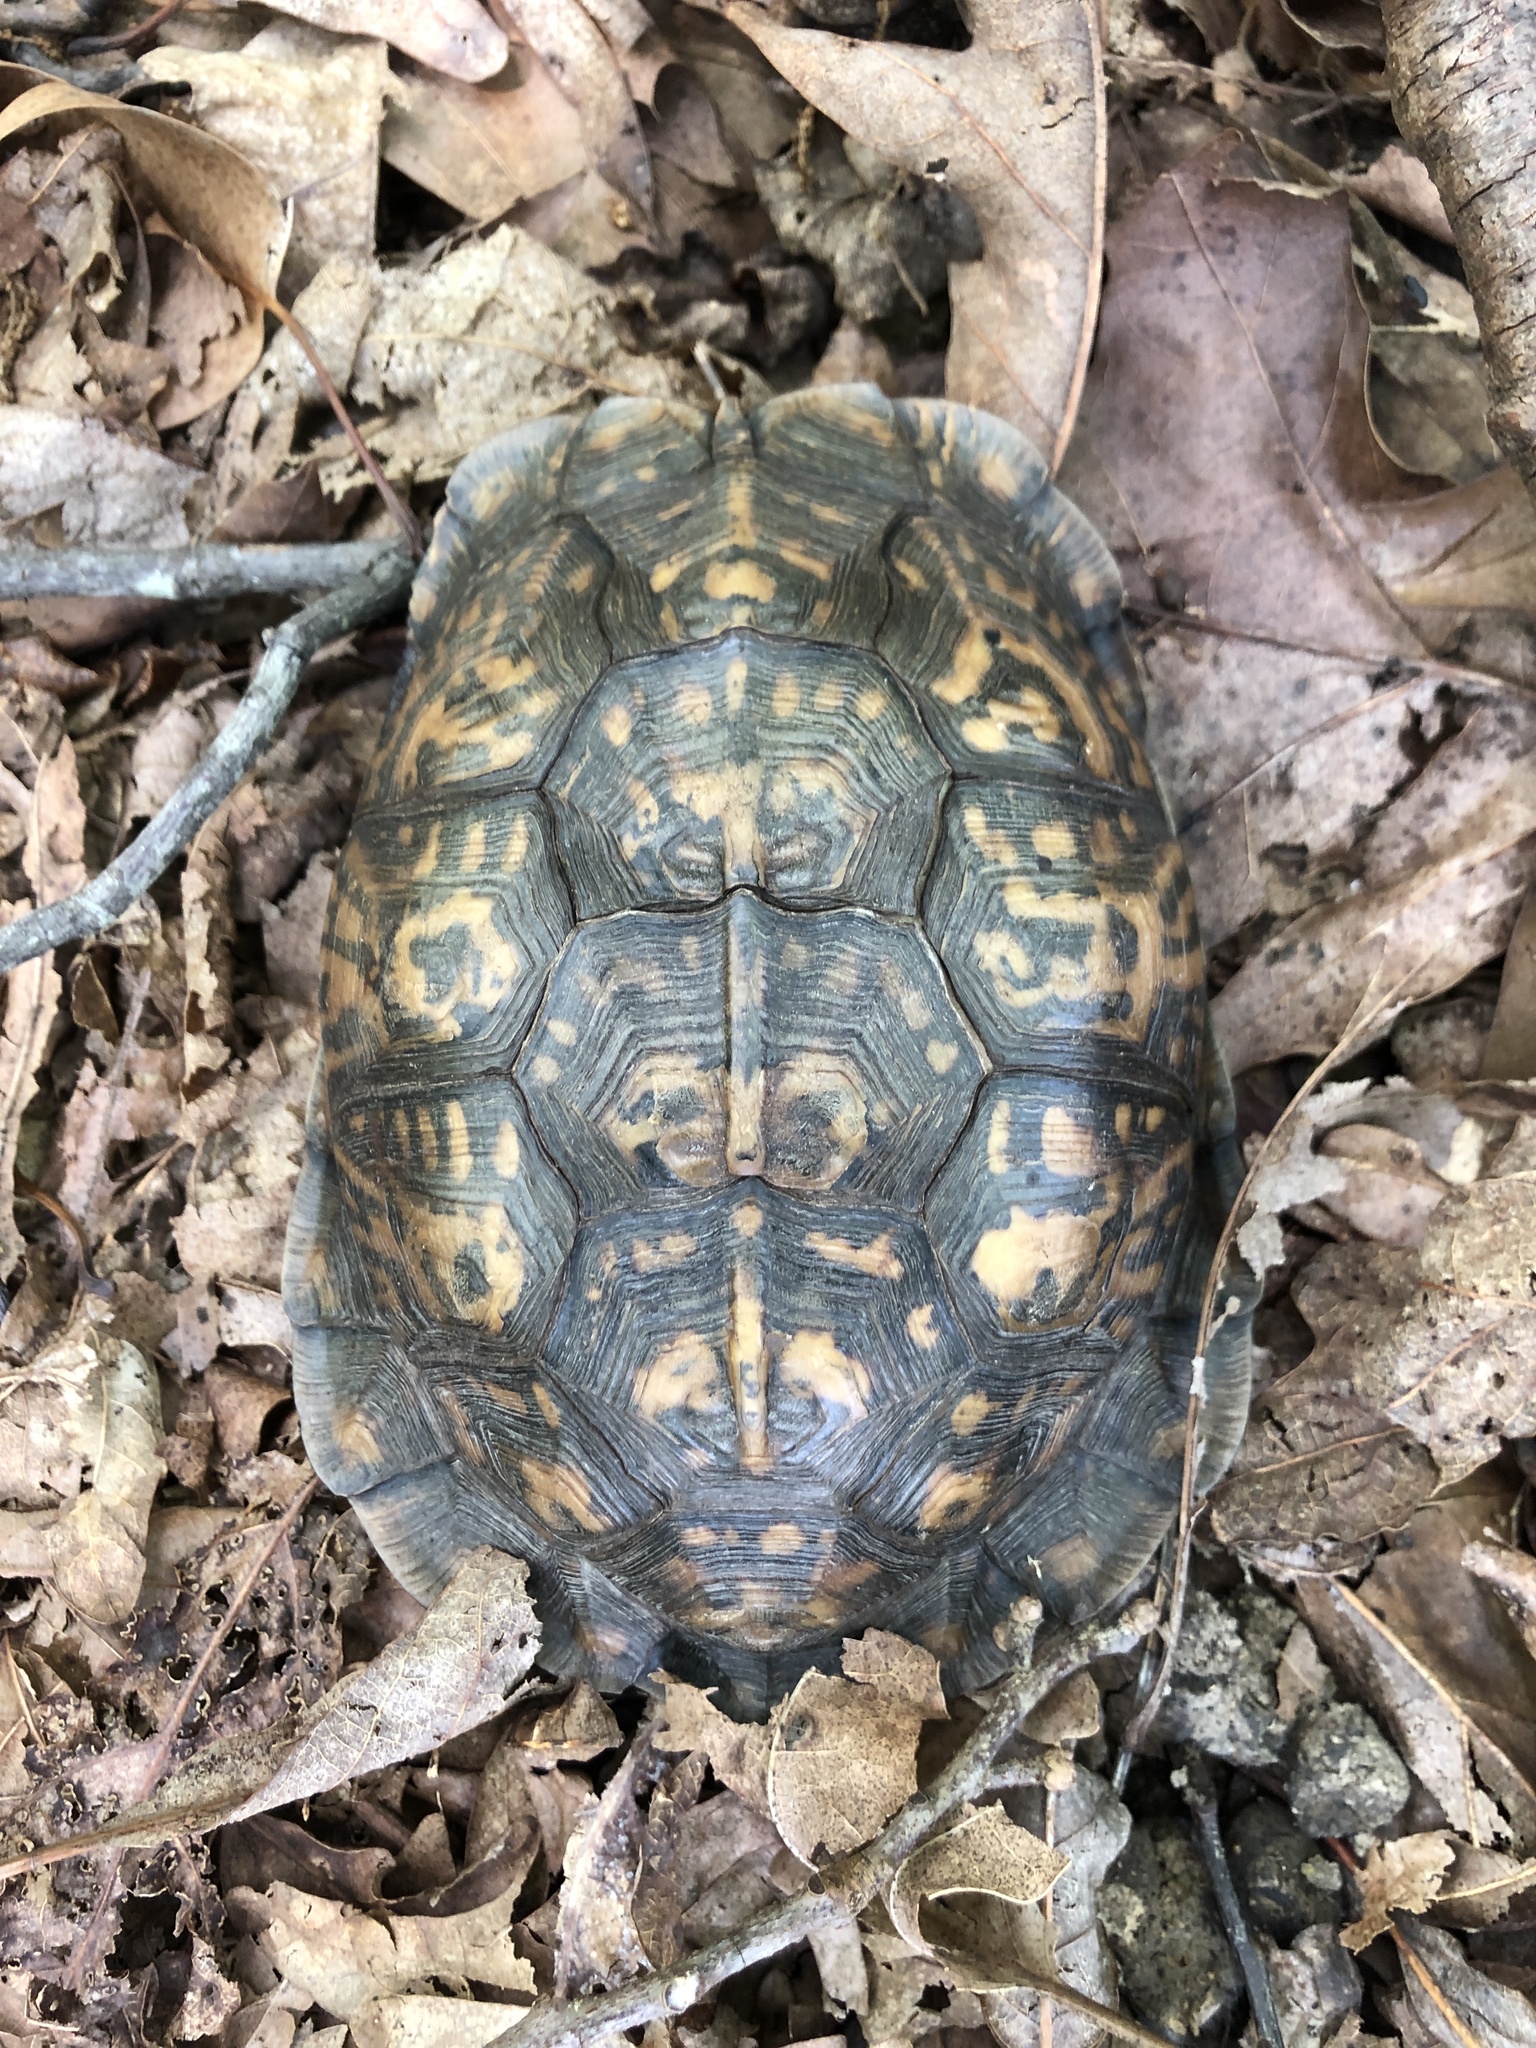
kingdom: Animalia
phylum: Chordata
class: Testudines
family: Emydidae
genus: Terrapene
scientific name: Terrapene carolina
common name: Common box turtle
